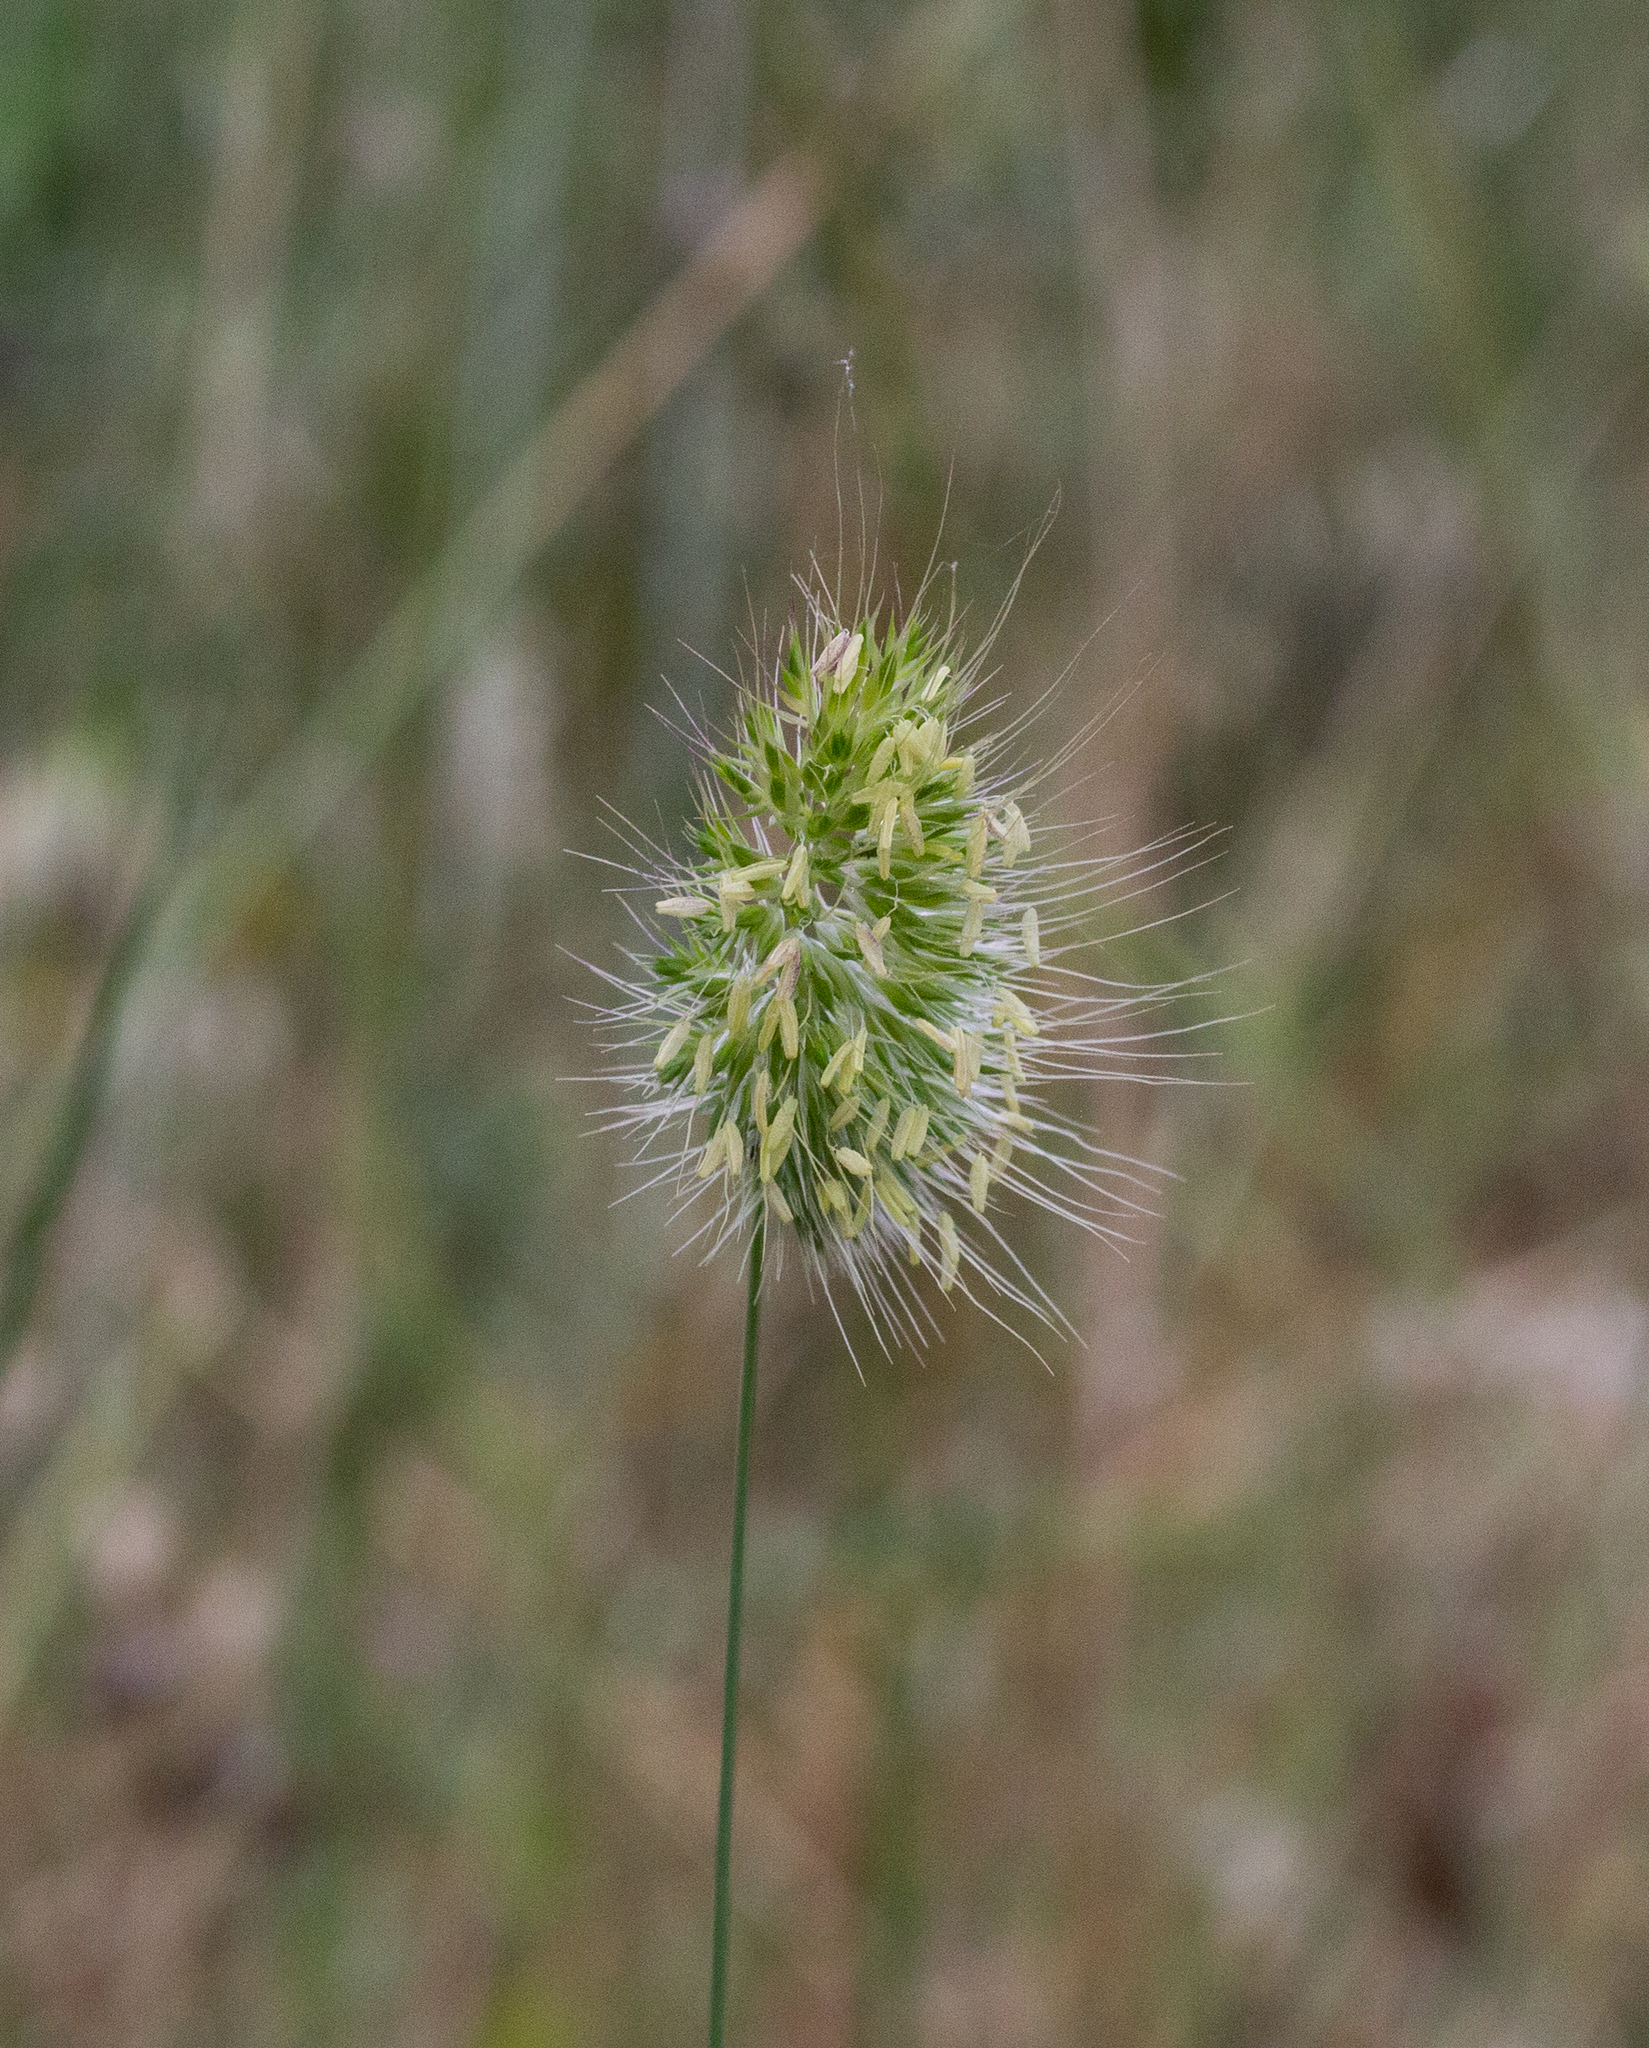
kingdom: Plantae
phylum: Tracheophyta
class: Liliopsida
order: Poales
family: Poaceae
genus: Cynosurus
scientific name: Cynosurus echinatus
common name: Rough dog's-tail
